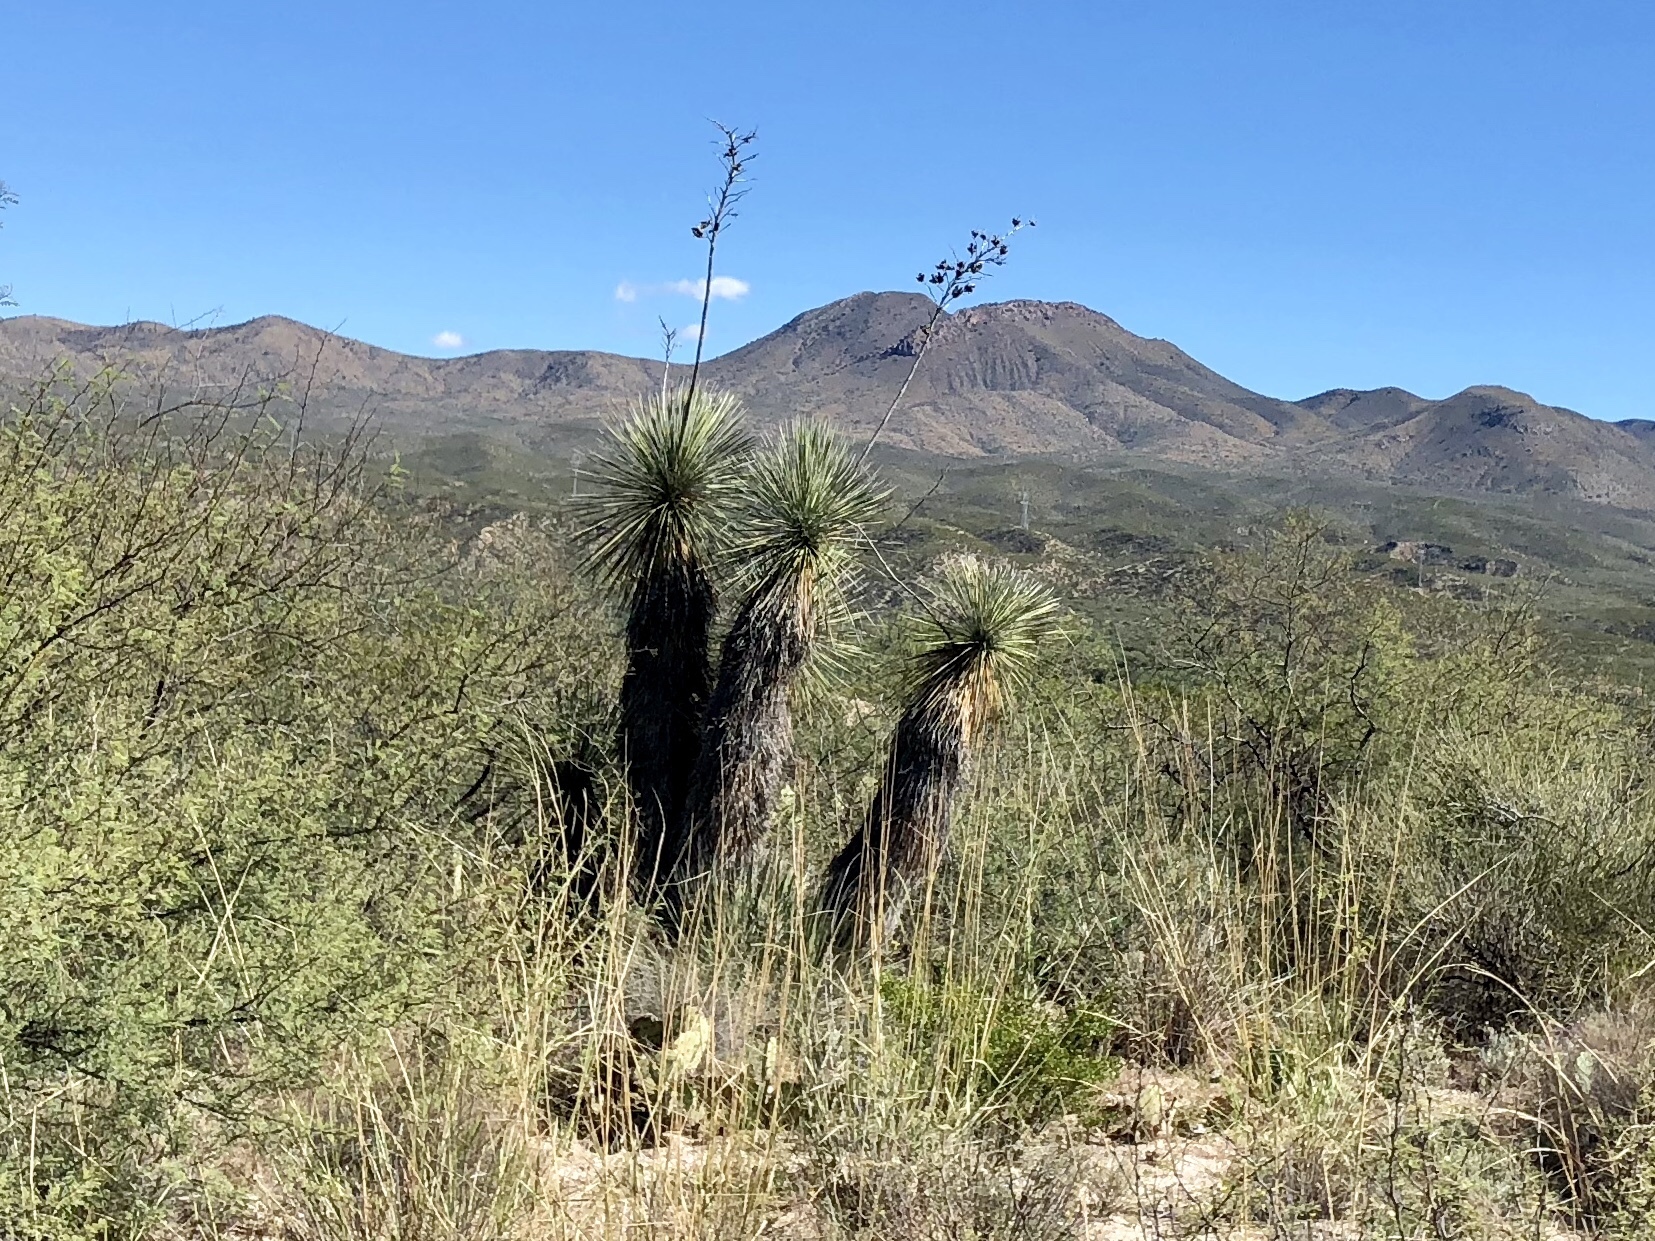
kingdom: Plantae
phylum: Tracheophyta
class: Liliopsida
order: Asparagales
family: Asparagaceae
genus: Yucca
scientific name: Yucca elata
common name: Palmella
